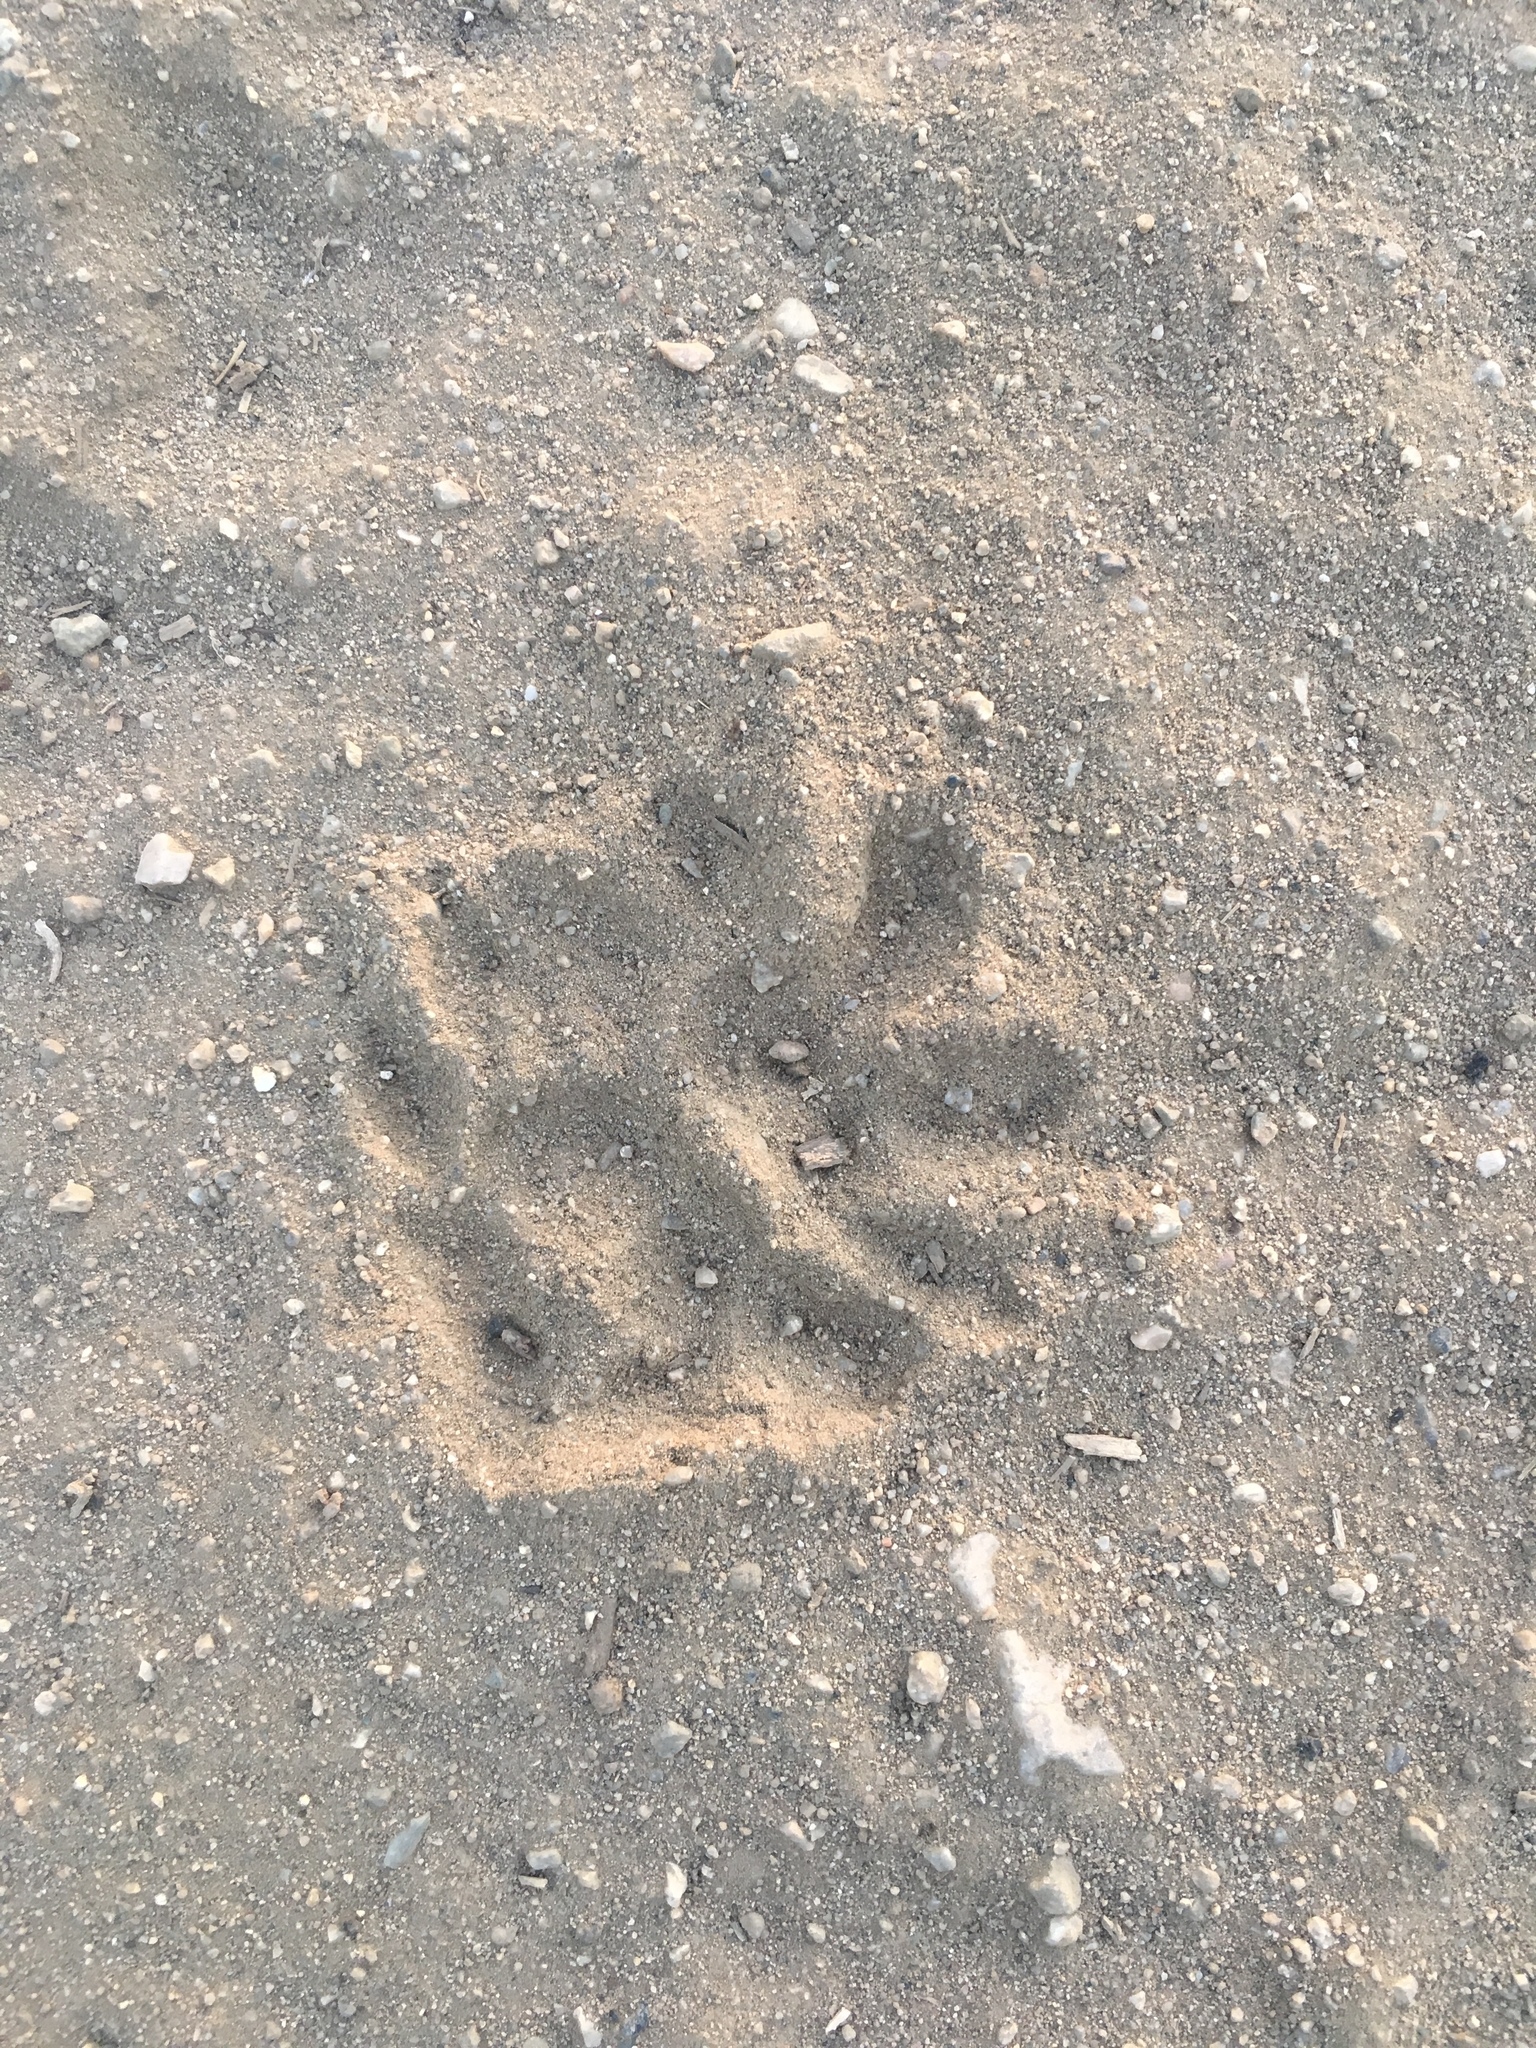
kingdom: Animalia
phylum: Chordata
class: Mammalia
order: Didelphimorphia
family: Didelphidae
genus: Didelphis
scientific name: Didelphis virginiana
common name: Virginia opossum
